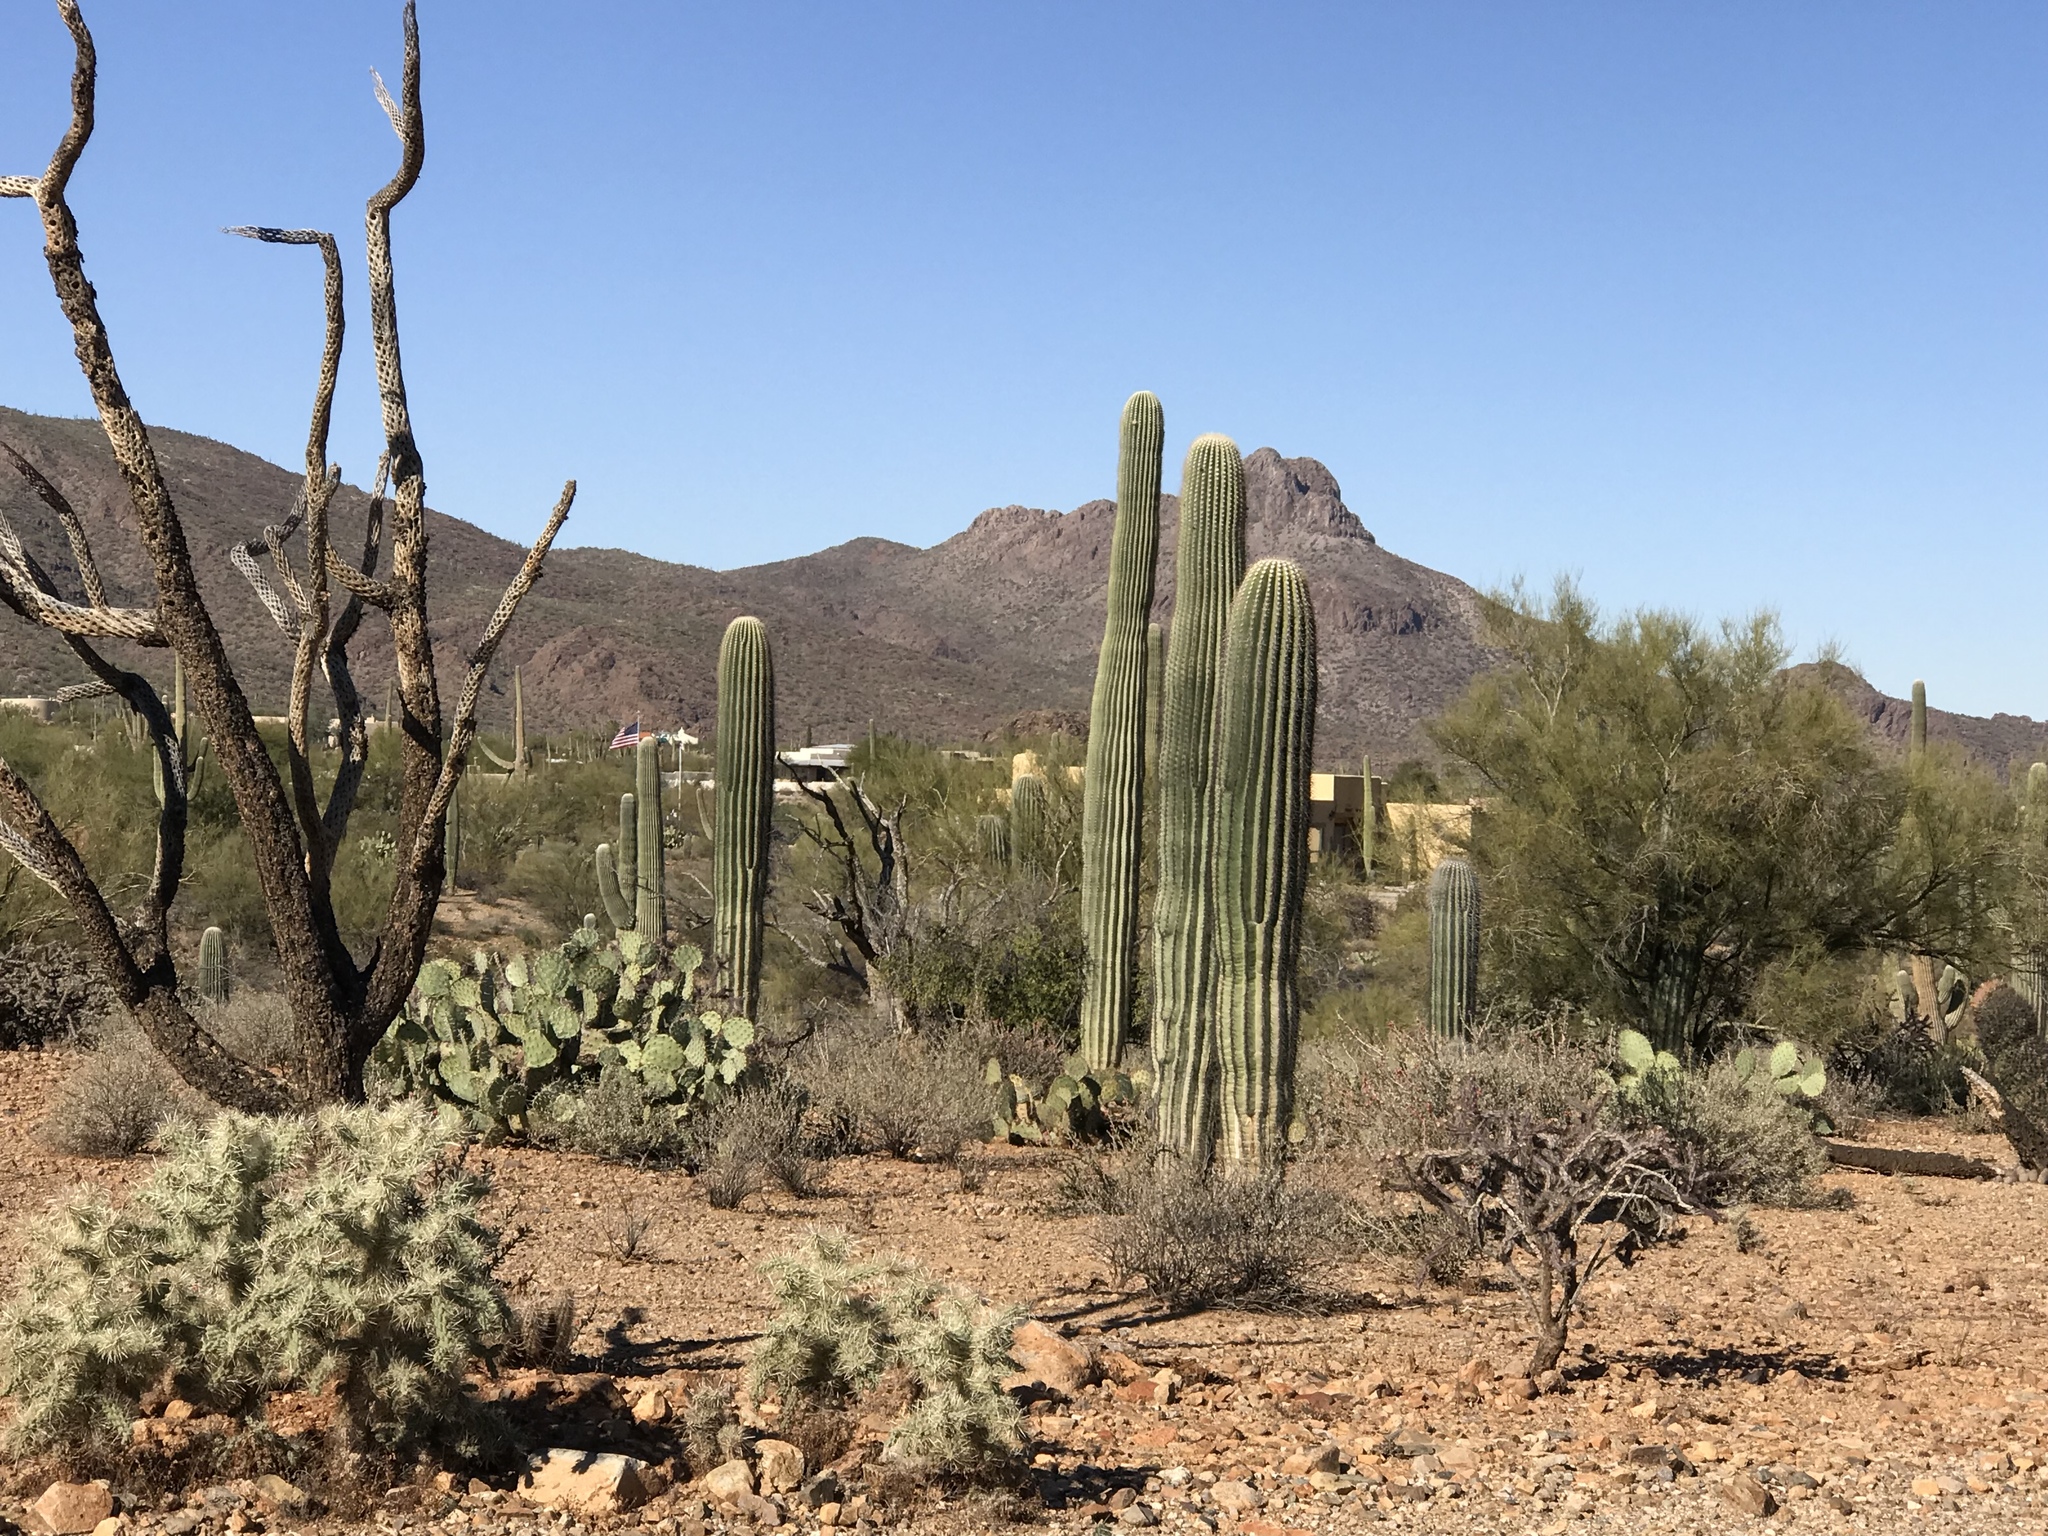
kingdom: Plantae
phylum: Tracheophyta
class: Magnoliopsida
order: Caryophyllales
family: Cactaceae
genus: Carnegiea
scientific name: Carnegiea gigantea
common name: Saguaro
